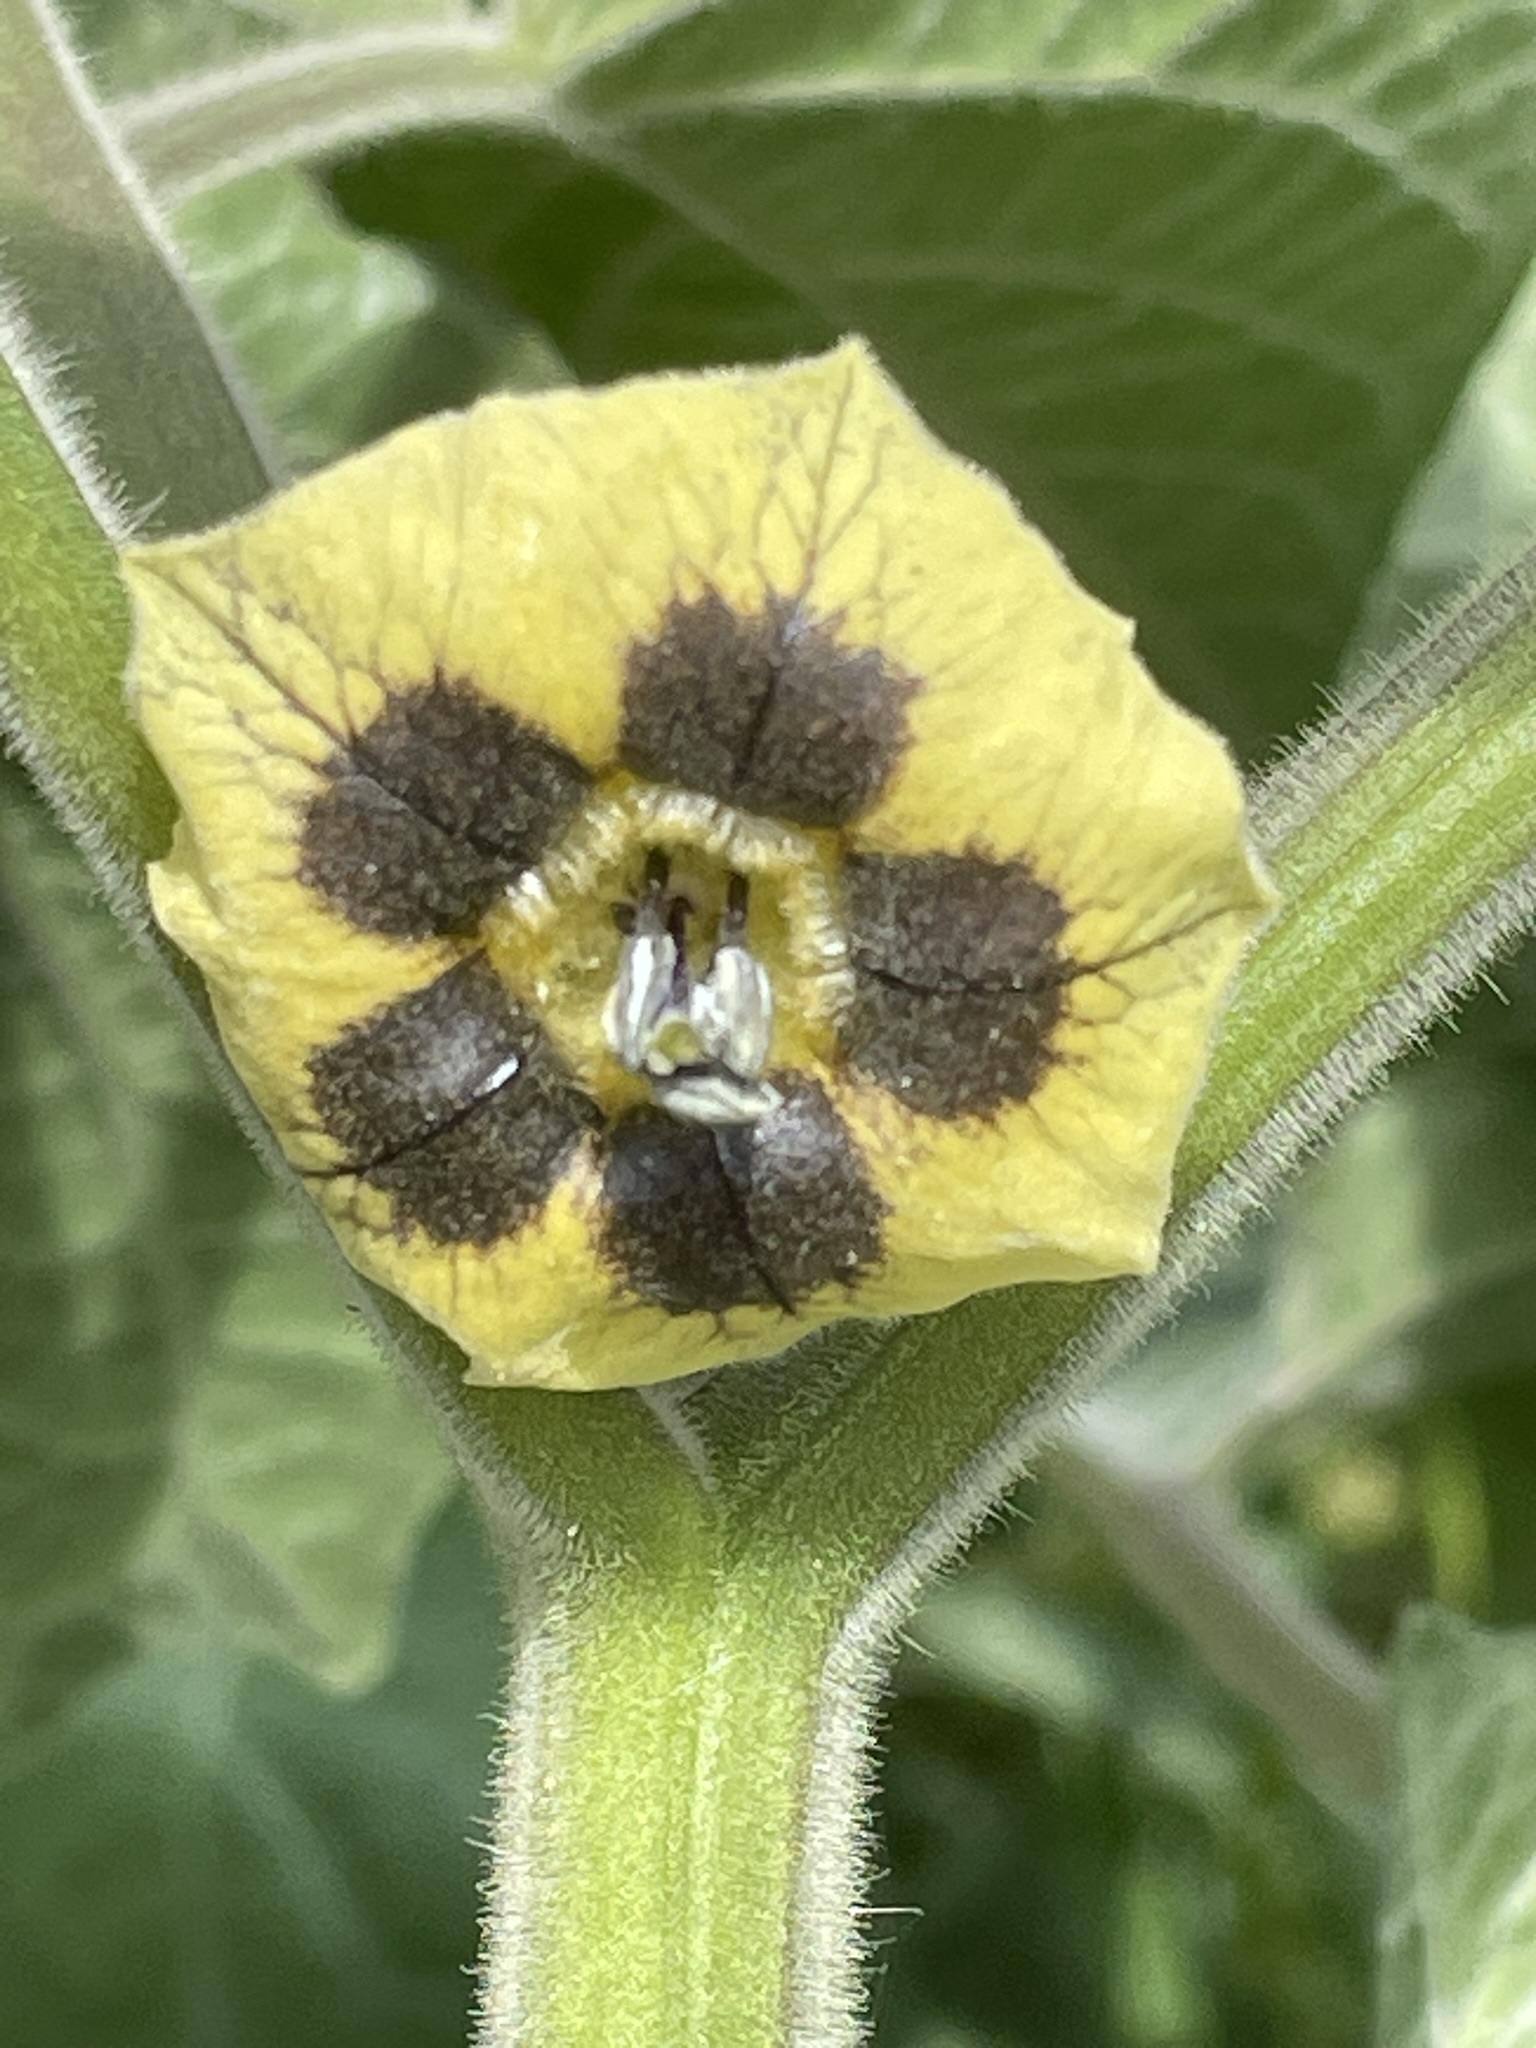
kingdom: Plantae
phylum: Tracheophyta
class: Magnoliopsida
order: Solanales
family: Solanaceae
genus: Physalis
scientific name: Physalis peruviana
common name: Cape-gooseberry
